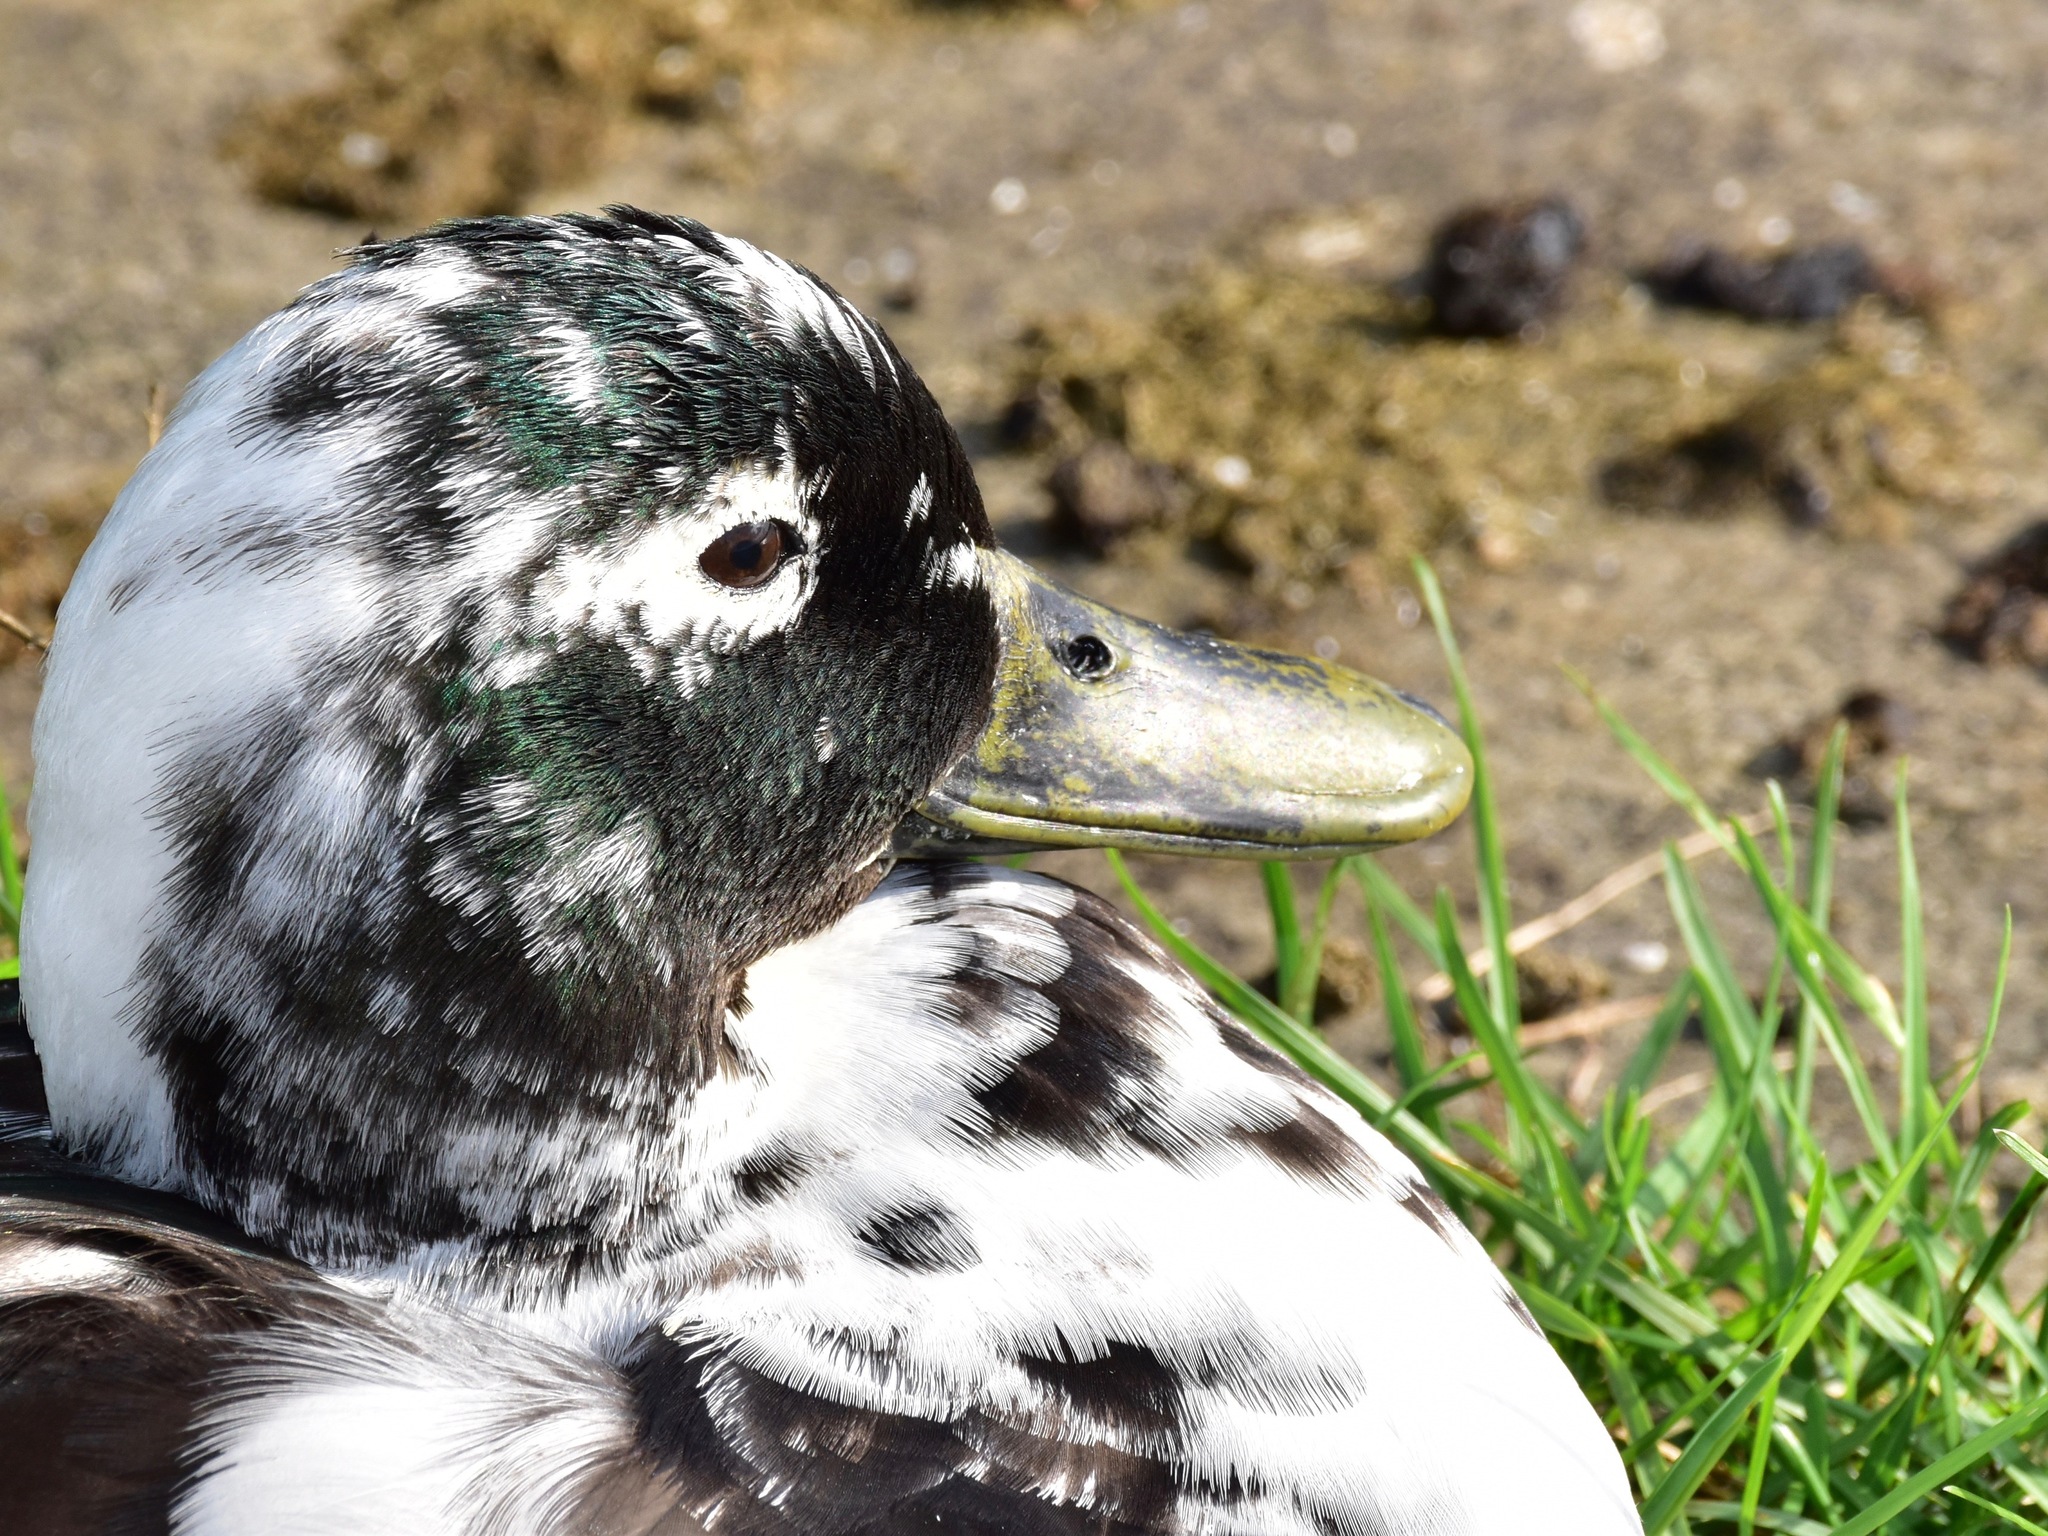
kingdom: Animalia
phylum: Chordata
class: Aves
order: Anseriformes
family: Anatidae
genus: Anas
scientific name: Anas platyrhynchos
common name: Mallard
